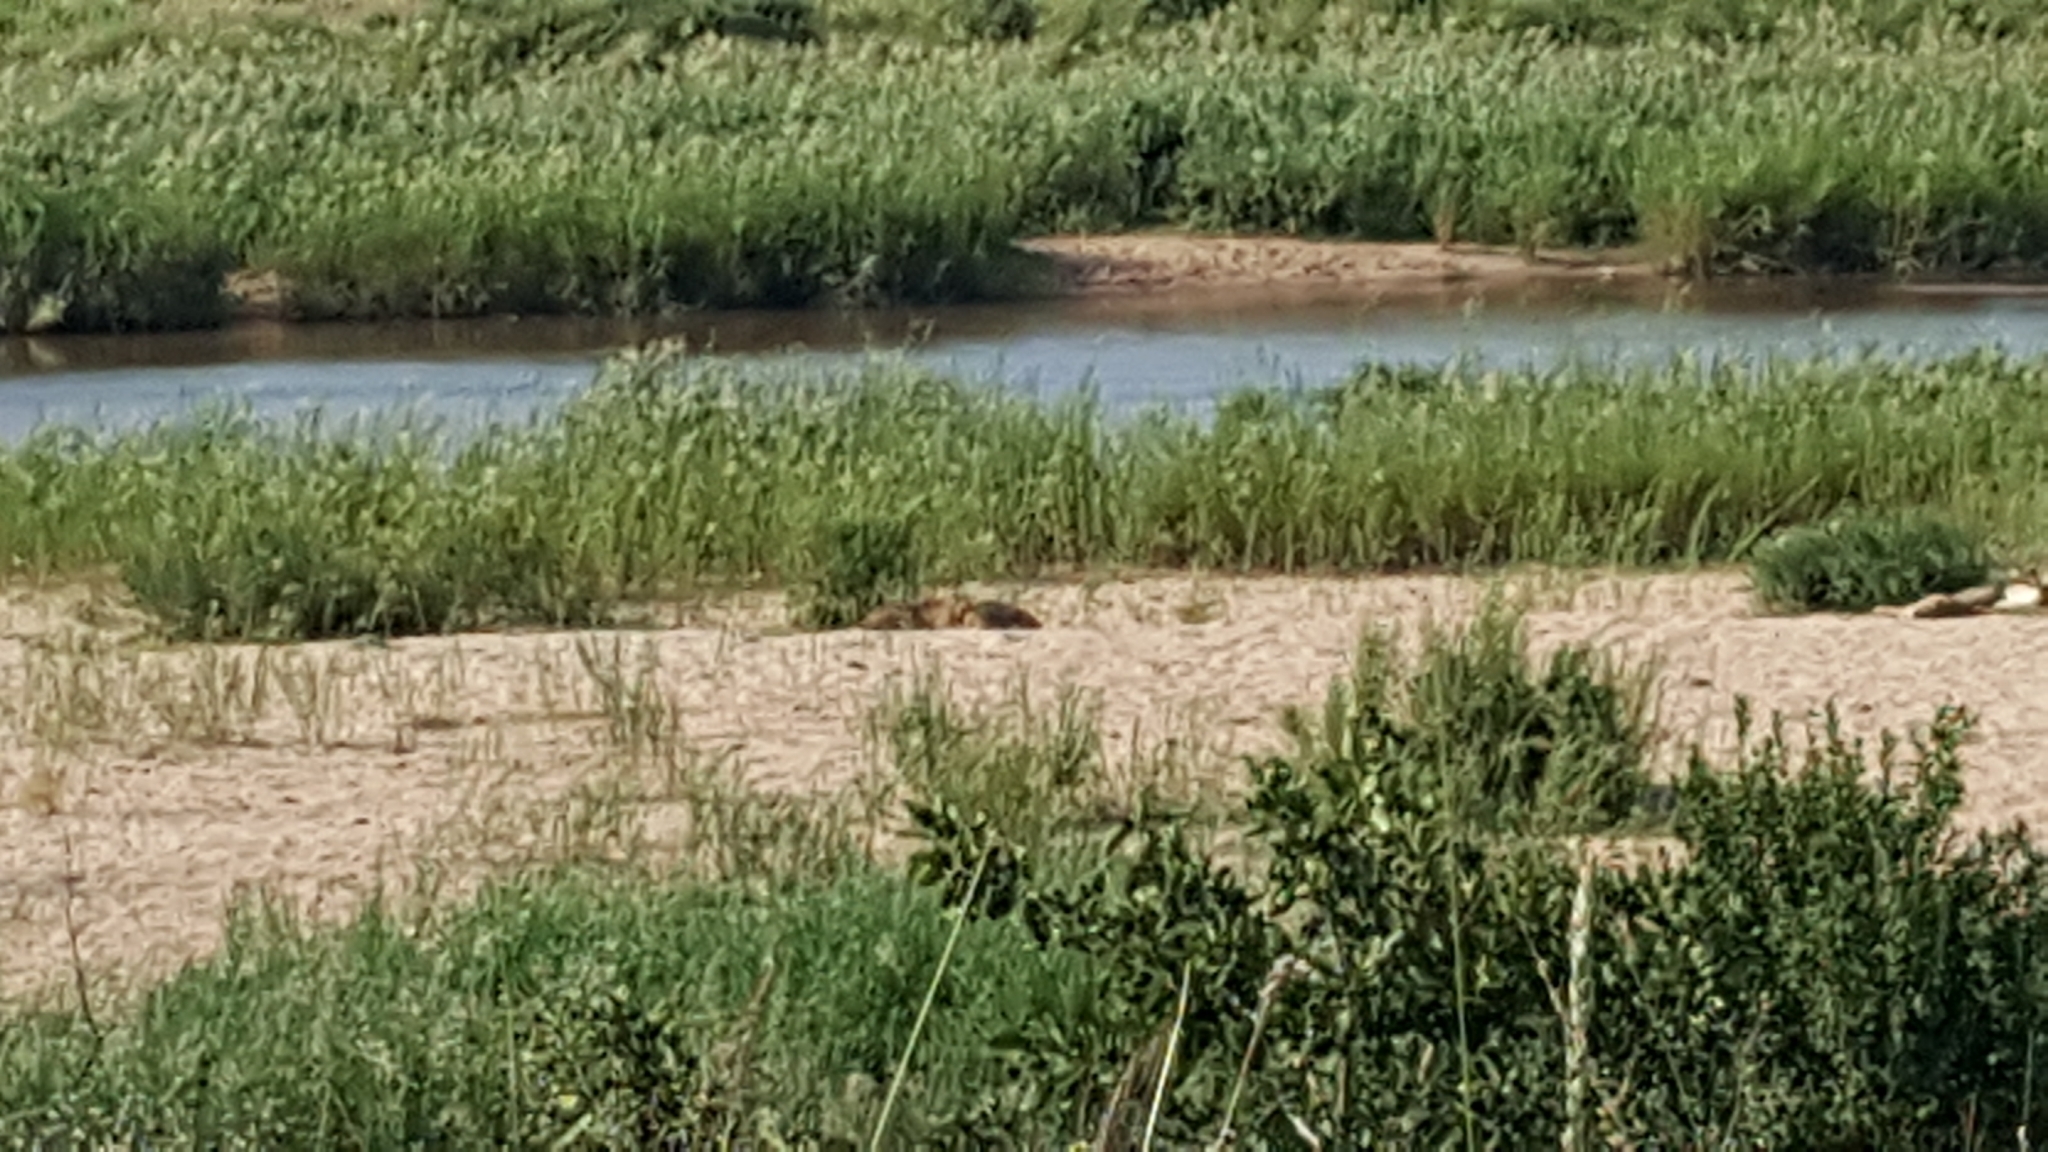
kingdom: Animalia
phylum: Chordata
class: Mammalia
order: Carnivora
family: Felidae
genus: Panthera
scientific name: Panthera leo
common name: Lion
